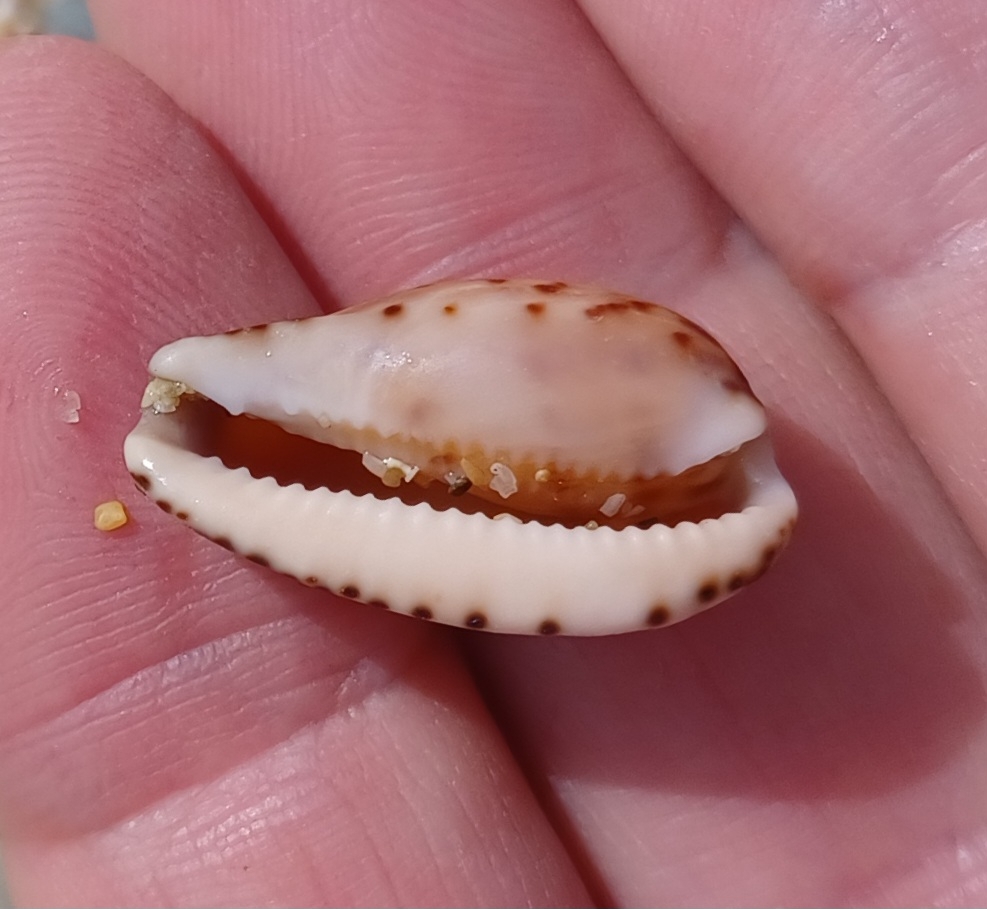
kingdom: Animalia
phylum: Mollusca
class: Gastropoda
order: Littorinimorpha
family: Cypraeidae
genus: Notocypraea
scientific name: Notocypraea comptonii
